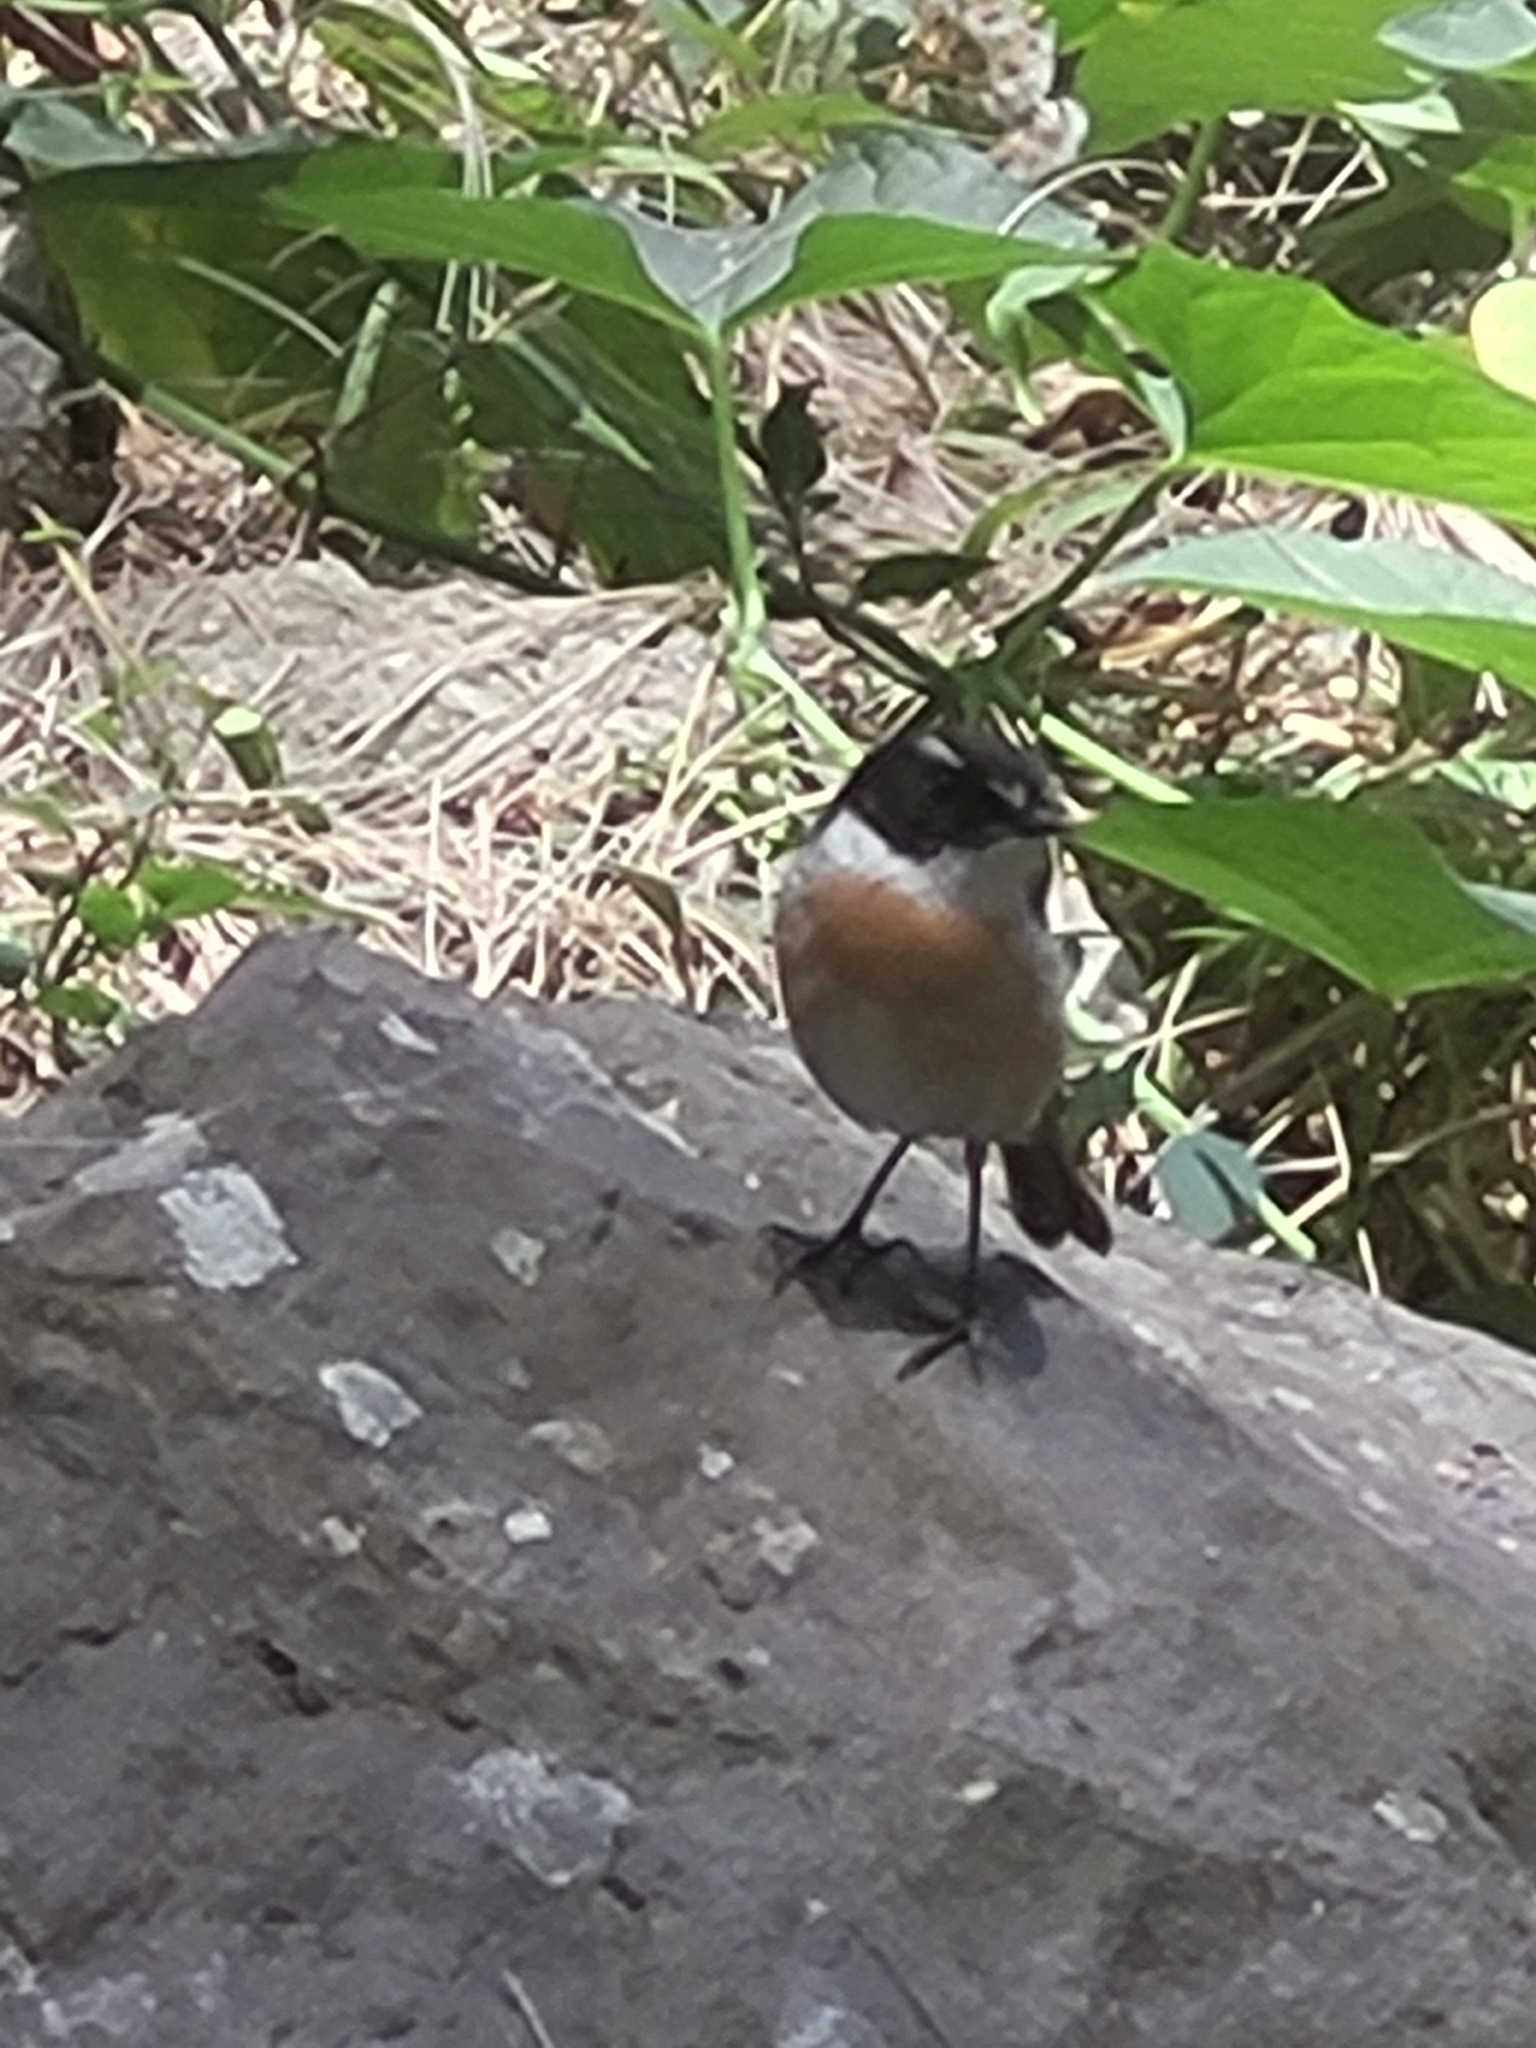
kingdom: Animalia
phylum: Chordata
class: Aves
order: Passeriformes
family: Muscicapidae
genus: Saxicola
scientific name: Saxicola tectes
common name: Reunion stonechat
